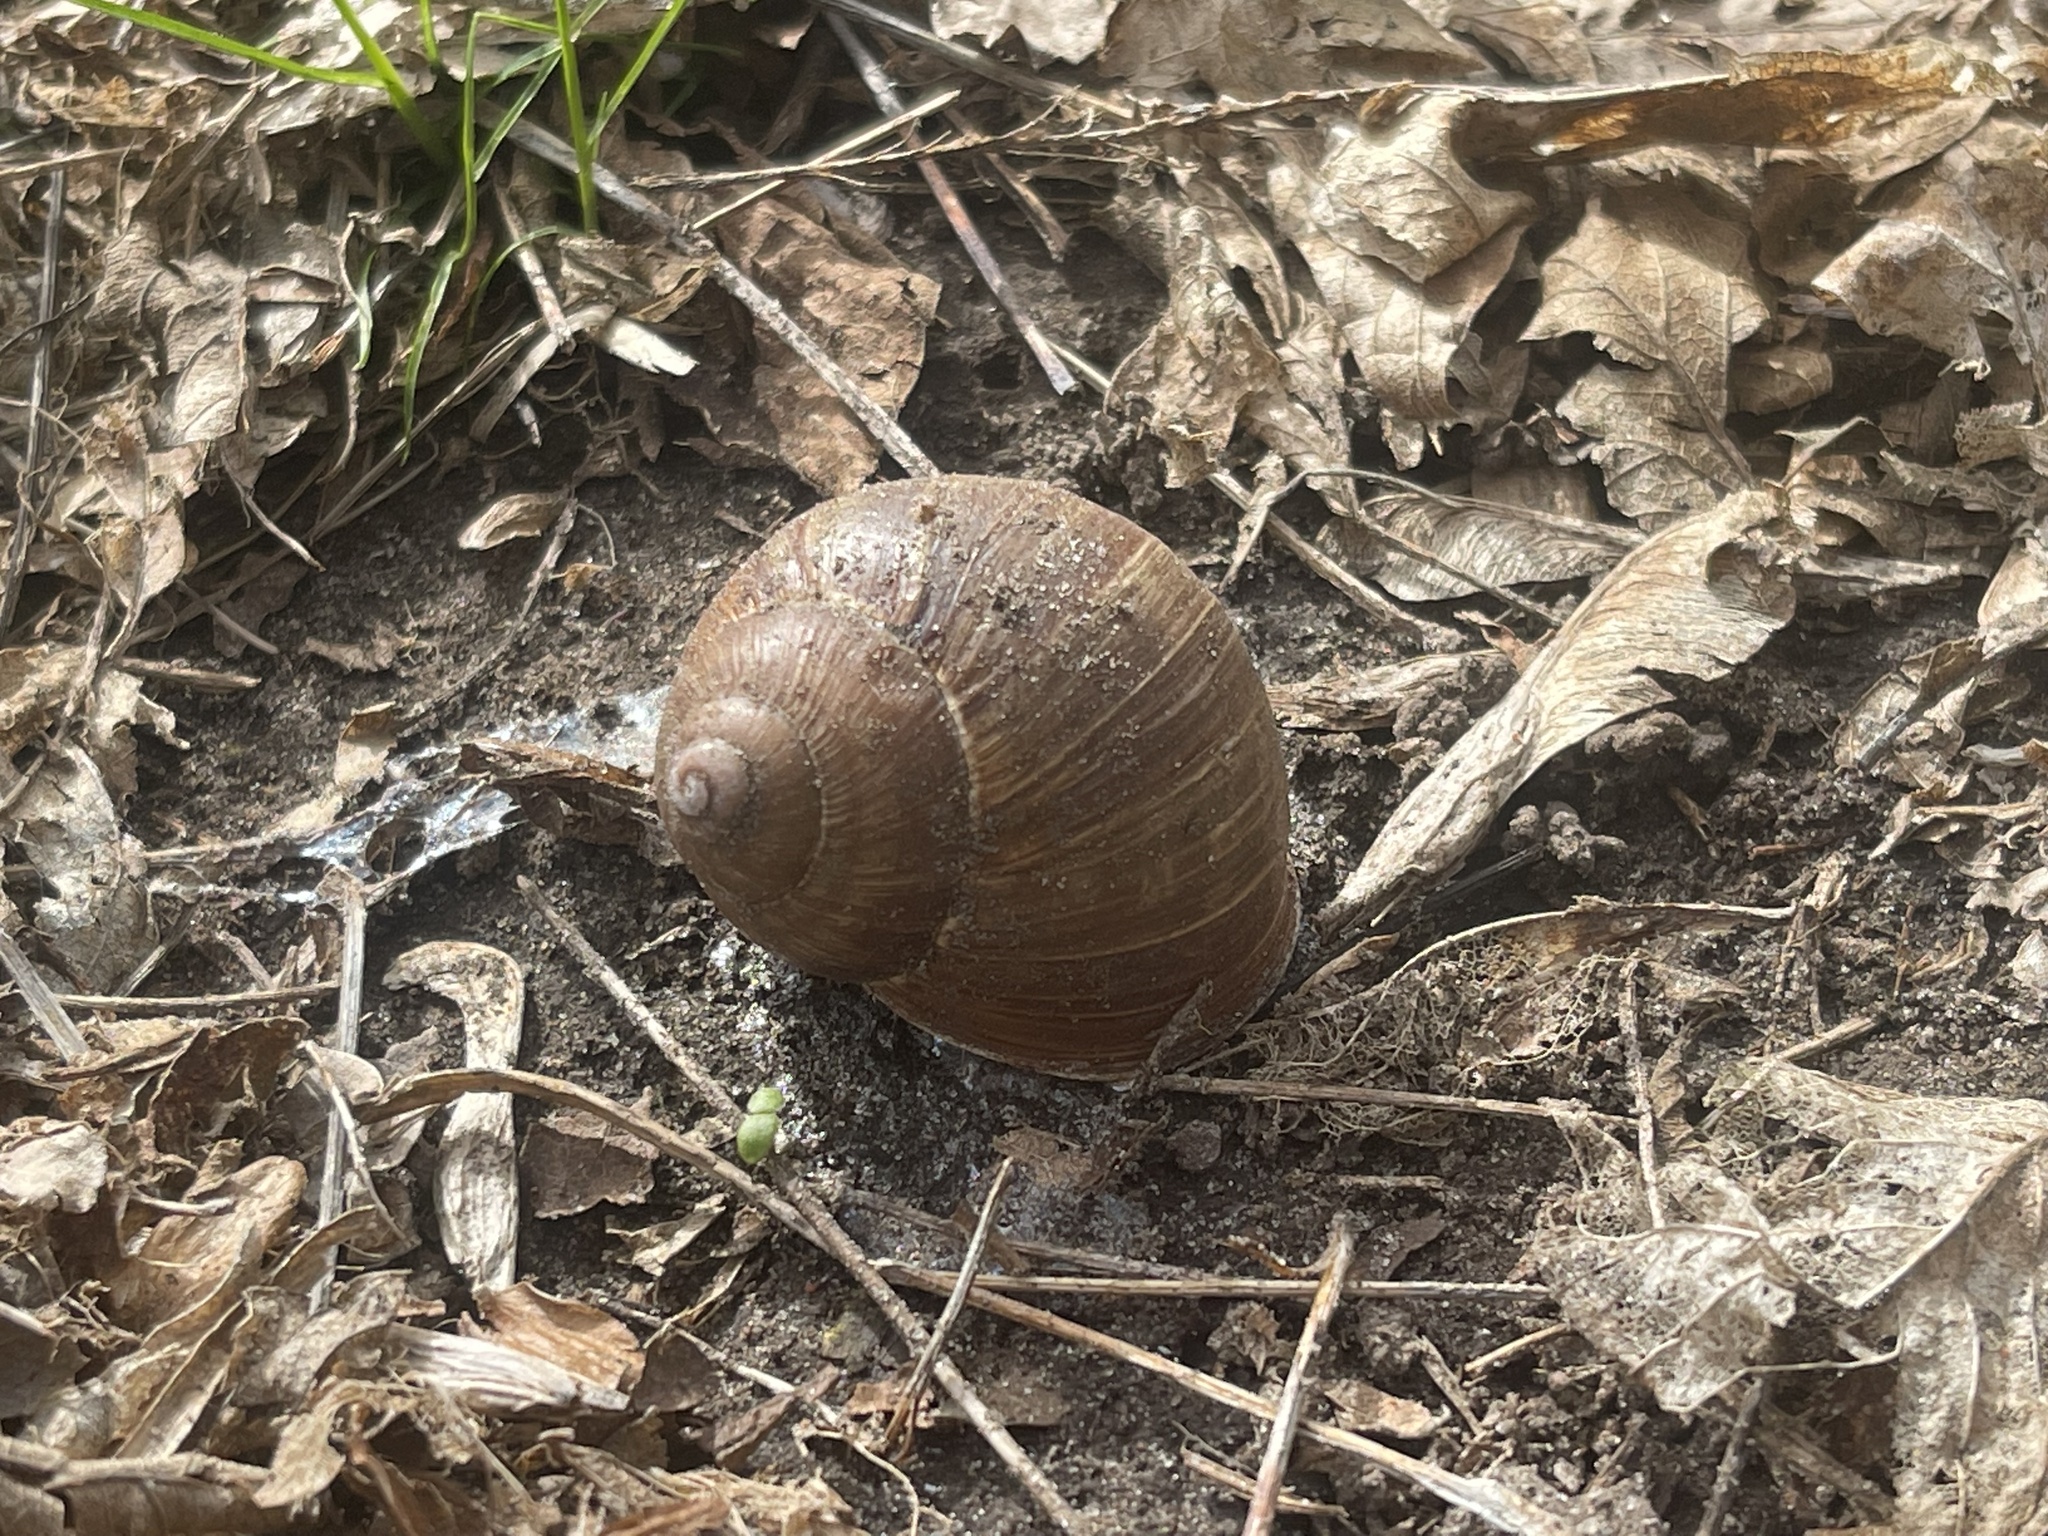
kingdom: Animalia
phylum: Mollusca
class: Gastropoda
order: Stylommatophora
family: Helicidae
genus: Helix
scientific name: Helix pomatia
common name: Roman snail
